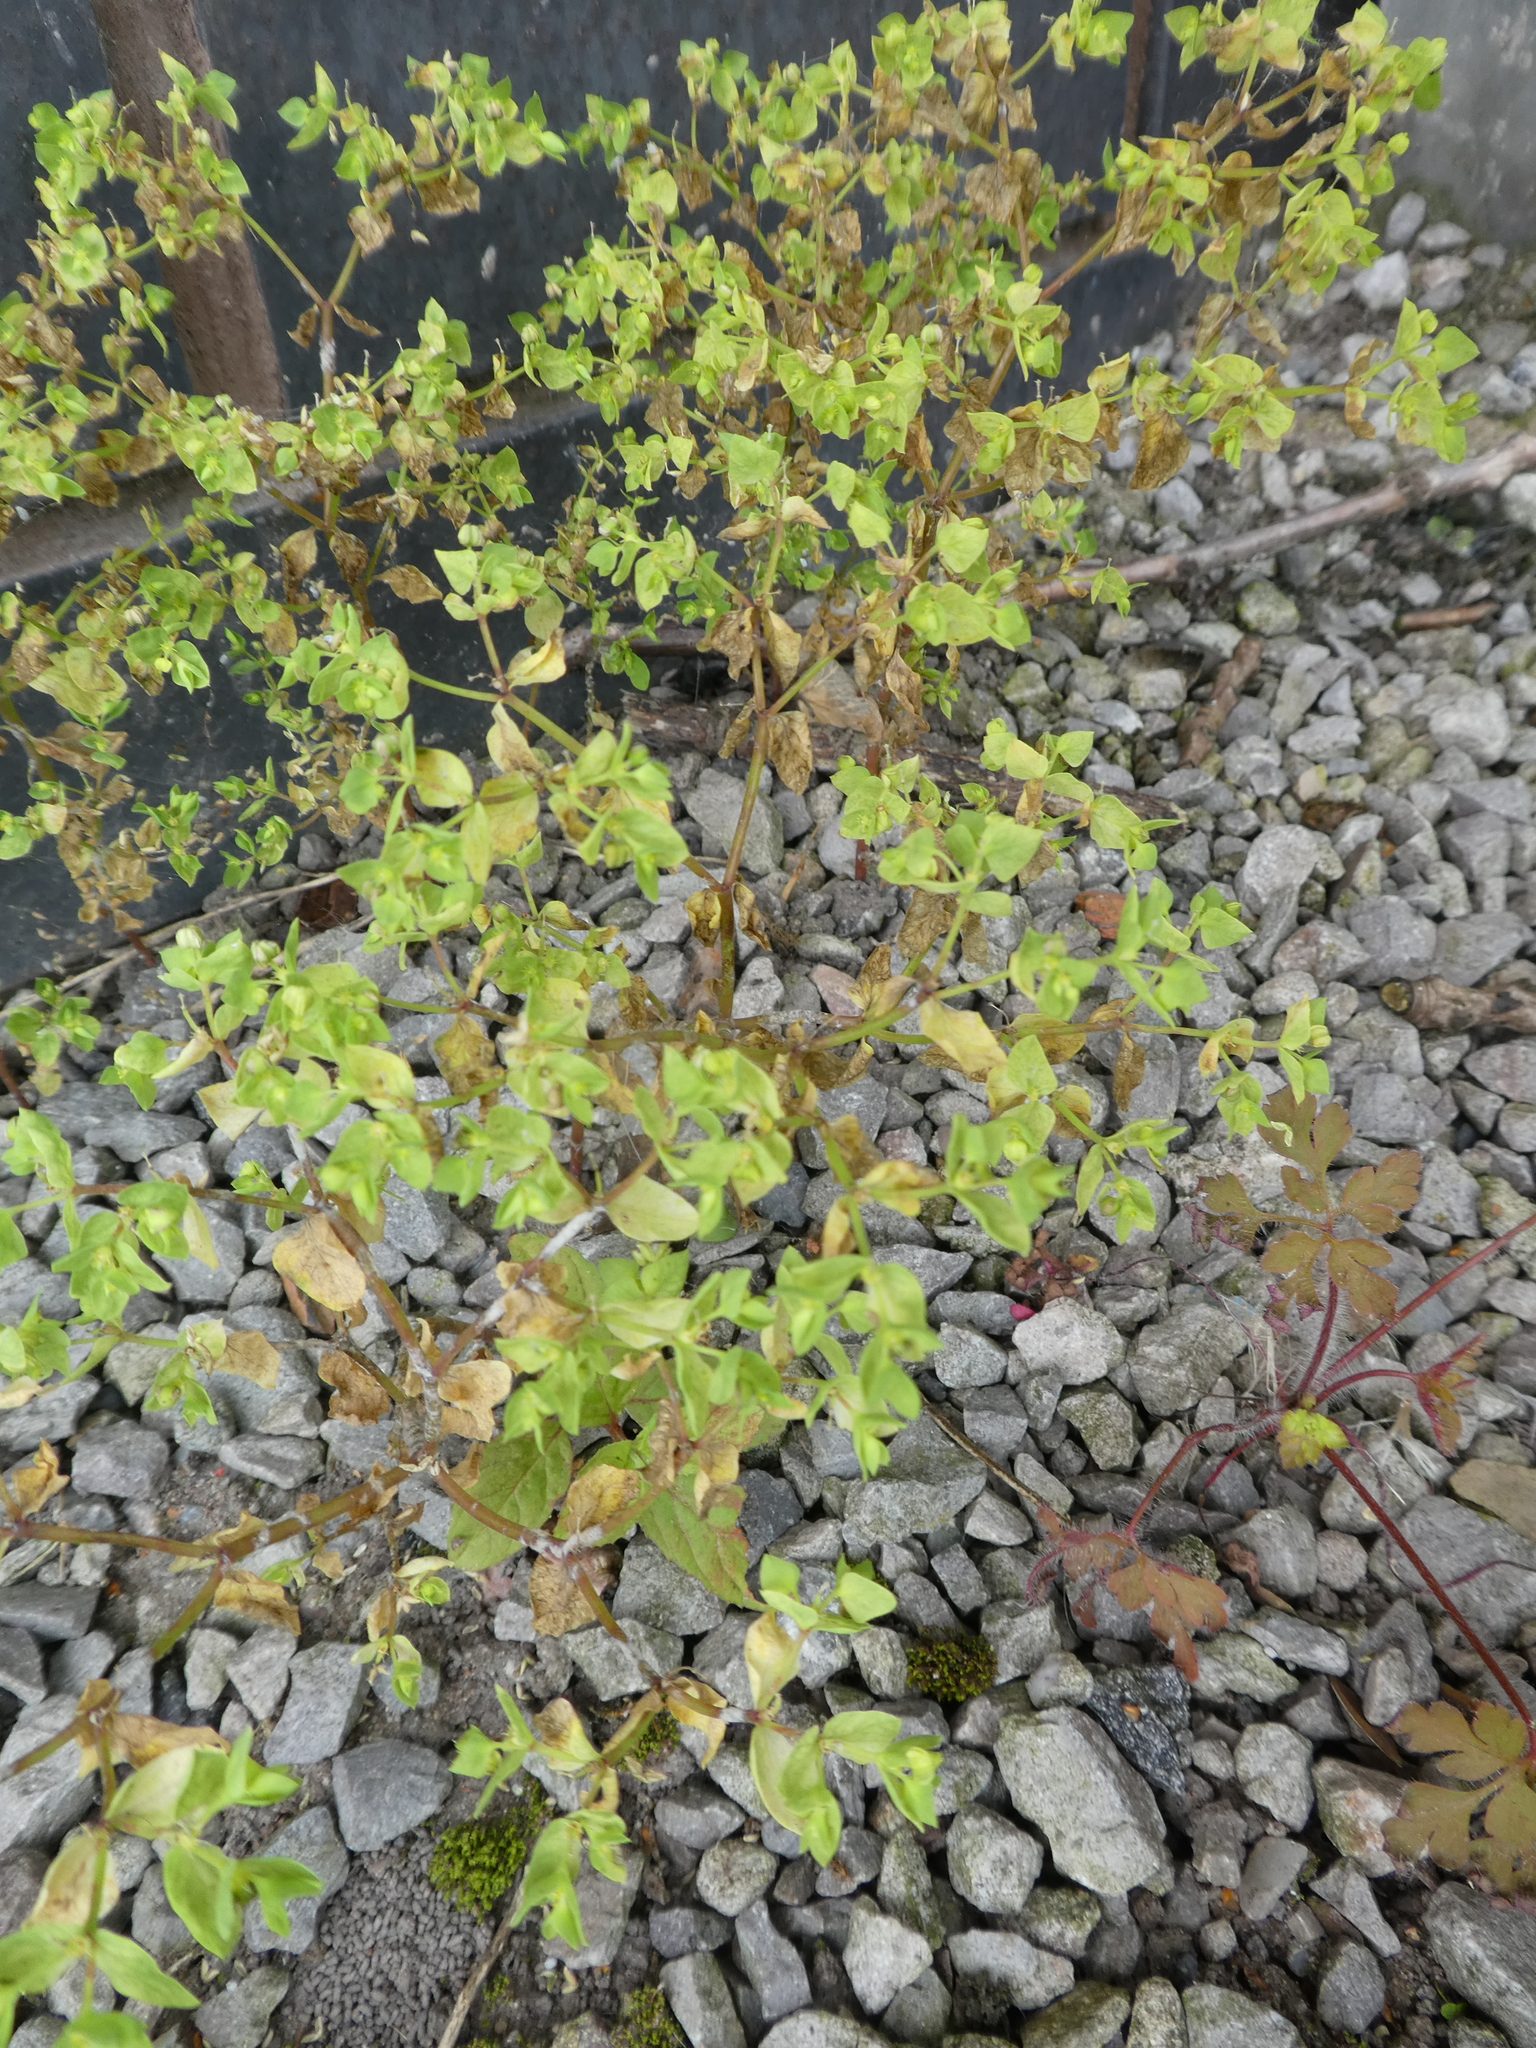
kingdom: Plantae
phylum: Tracheophyta
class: Magnoliopsida
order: Malpighiales
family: Euphorbiaceae
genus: Euphorbia
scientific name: Euphorbia peplus
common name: Petty spurge
